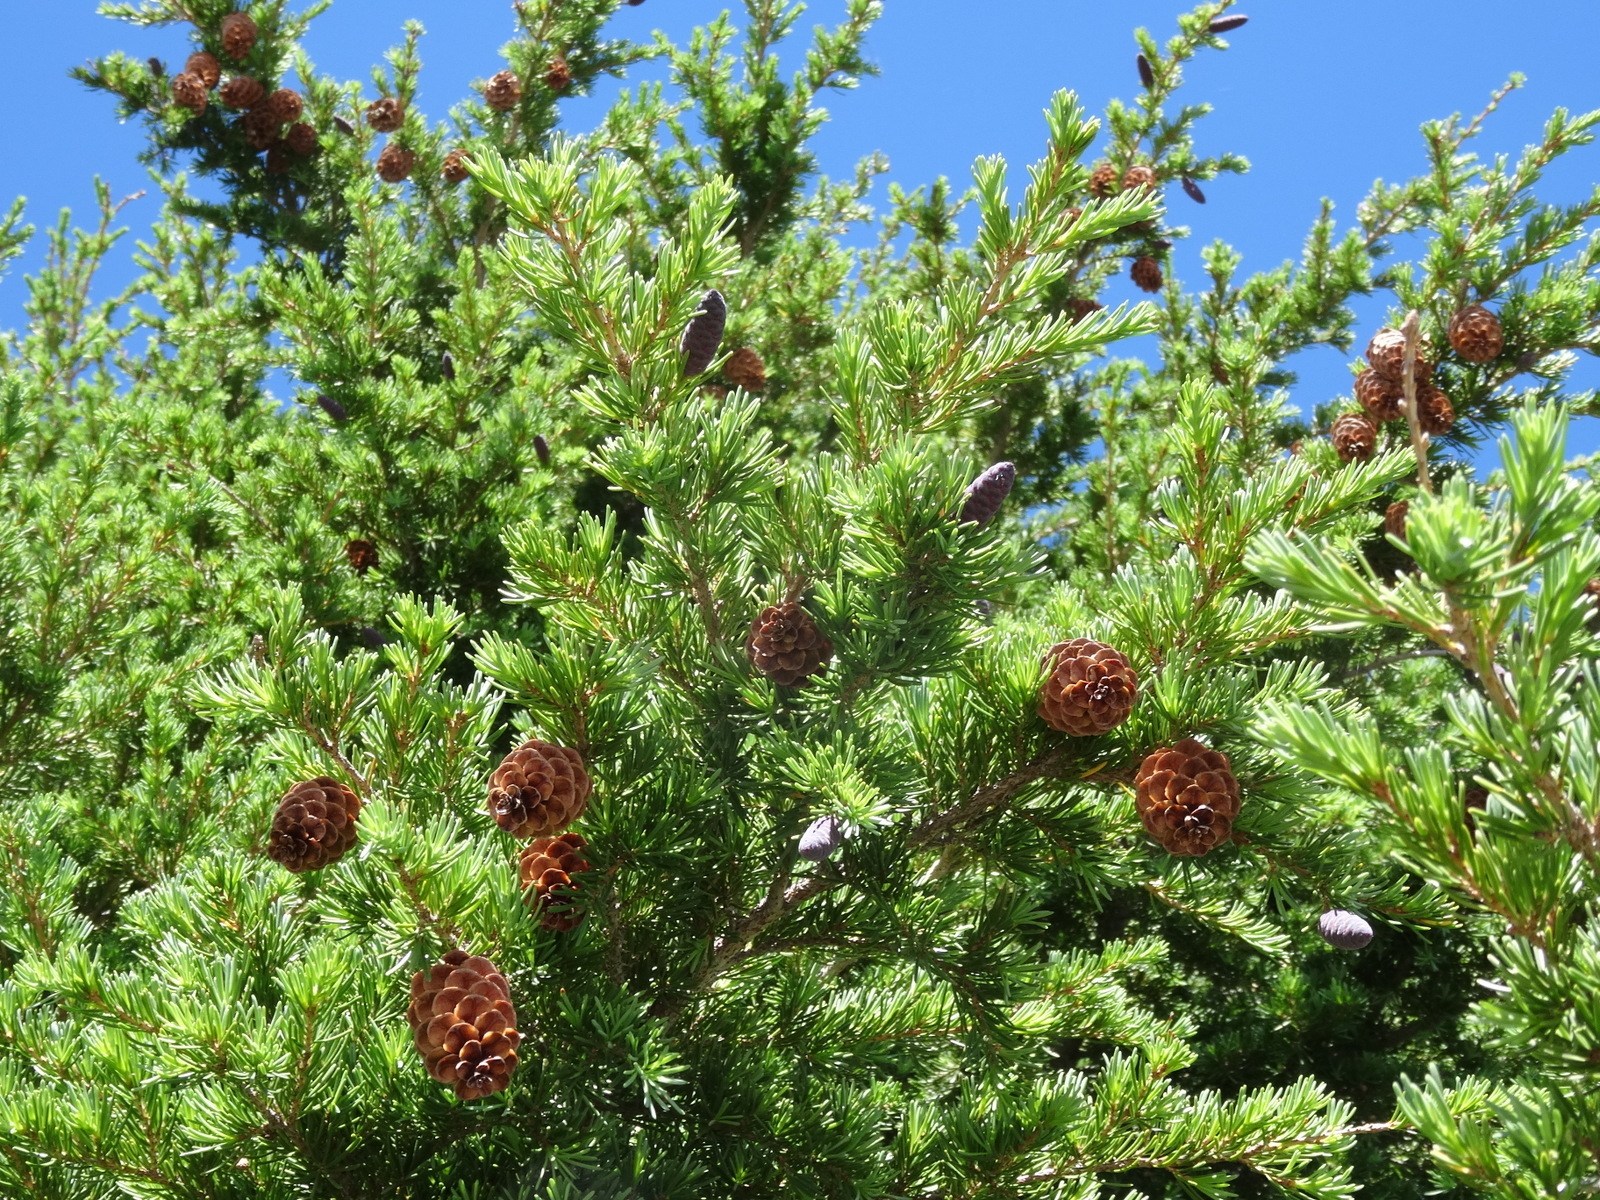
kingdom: Plantae
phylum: Tracheophyta
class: Pinopsida
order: Pinales
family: Pinaceae
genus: Tsuga
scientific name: Tsuga mertensiana
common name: Mountain hemlock
